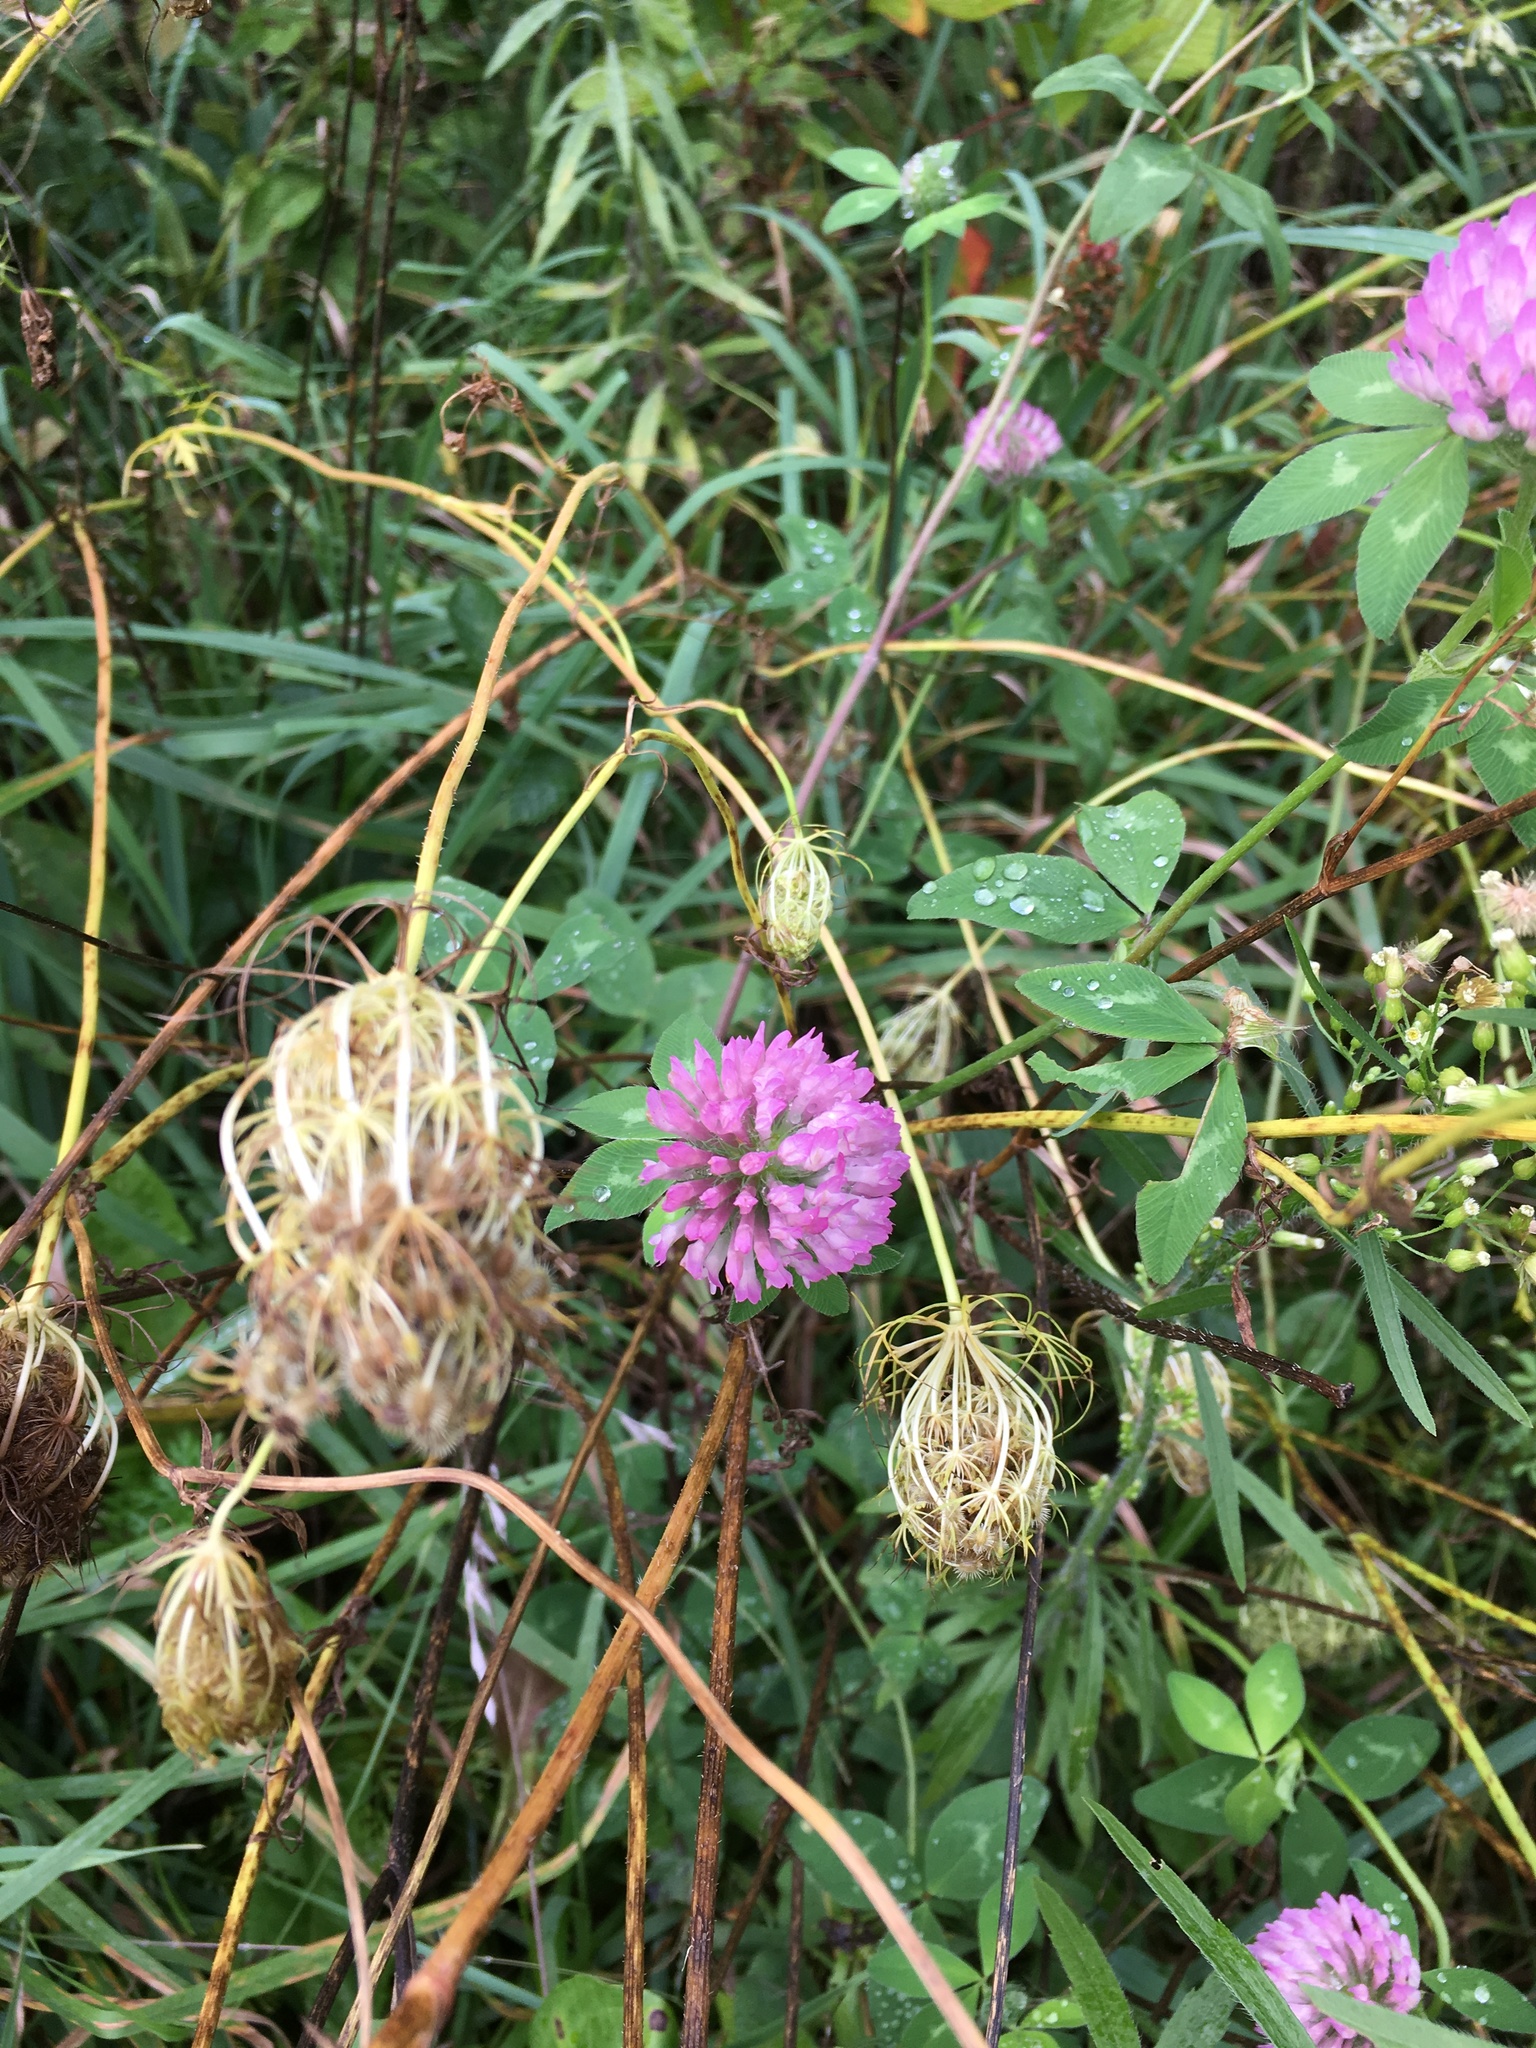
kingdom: Plantae
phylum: Tracheophyta
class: Magnoliopsida
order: Fabales
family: Fabaceae
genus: Trifolium
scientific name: Trifolium pratense
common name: Red clover
